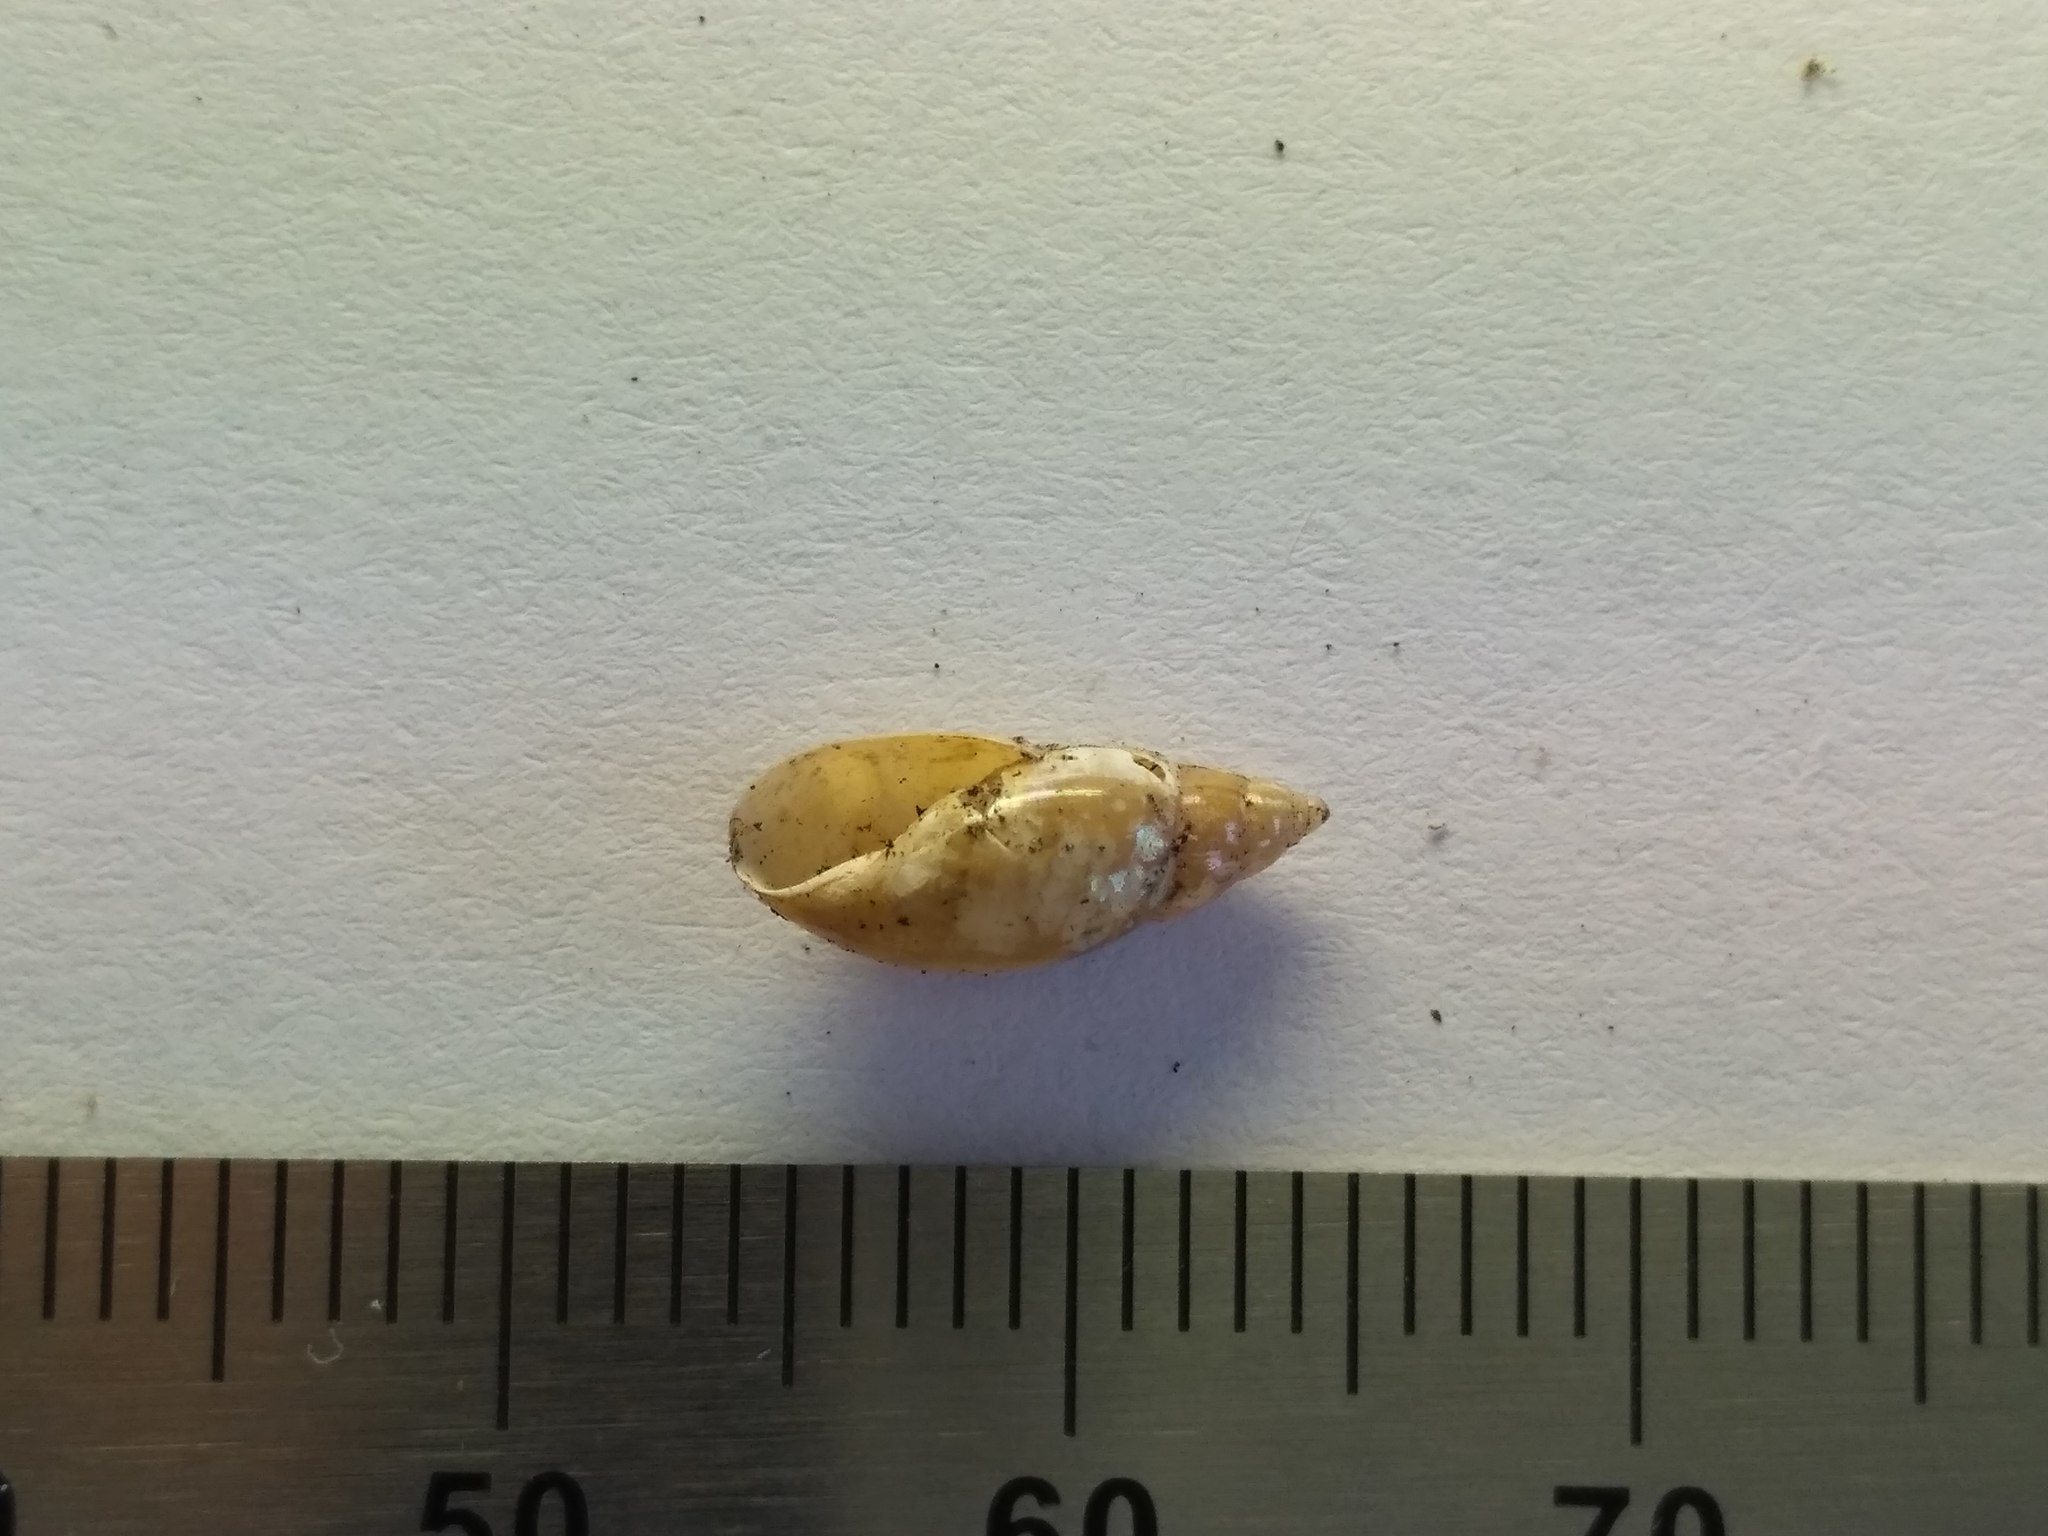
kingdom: Animalia
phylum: Mollusca
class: Gastropoda
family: Physidae
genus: Aplexa
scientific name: Aplexa hypnorum
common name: Moss bladder snail
